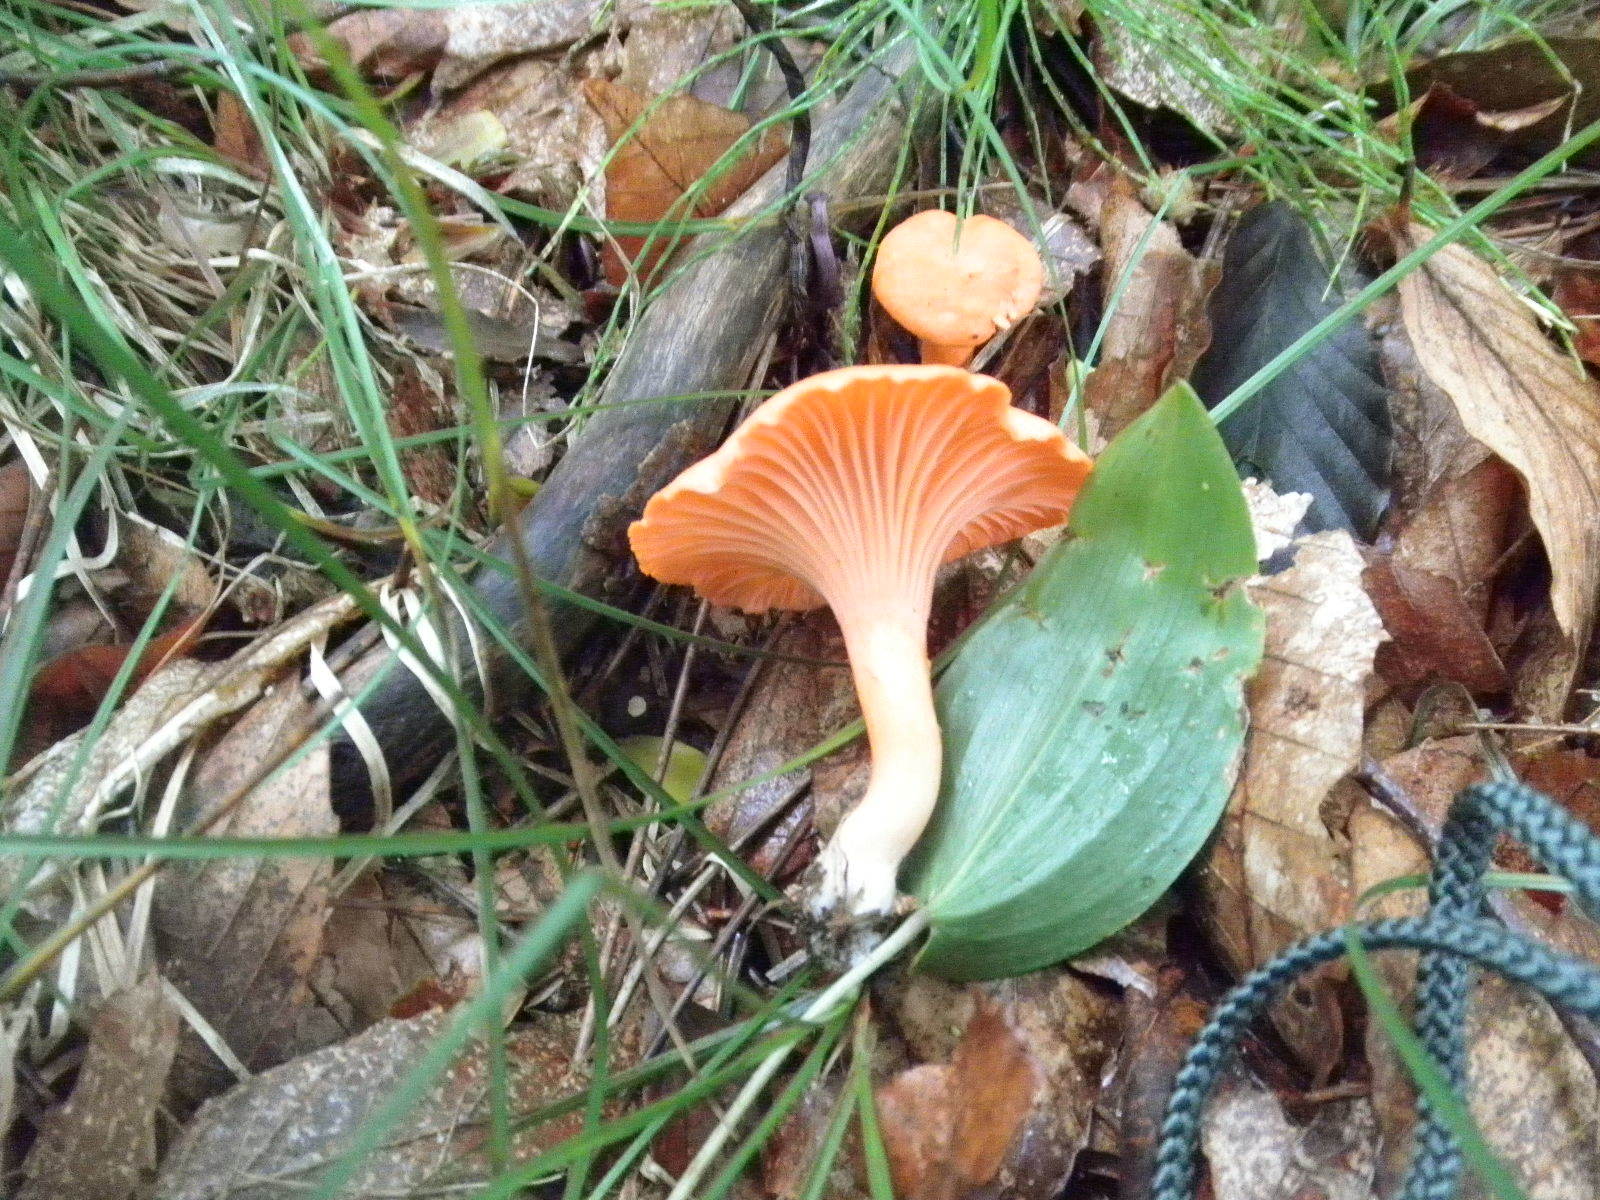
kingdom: Fungi
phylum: Basidiomycota
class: Agaricomycetes
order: Cantharellales
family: Hydnaceae
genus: Cantharellus
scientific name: Cantharellus cinnabarinus
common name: Cinnabar chanterelle
